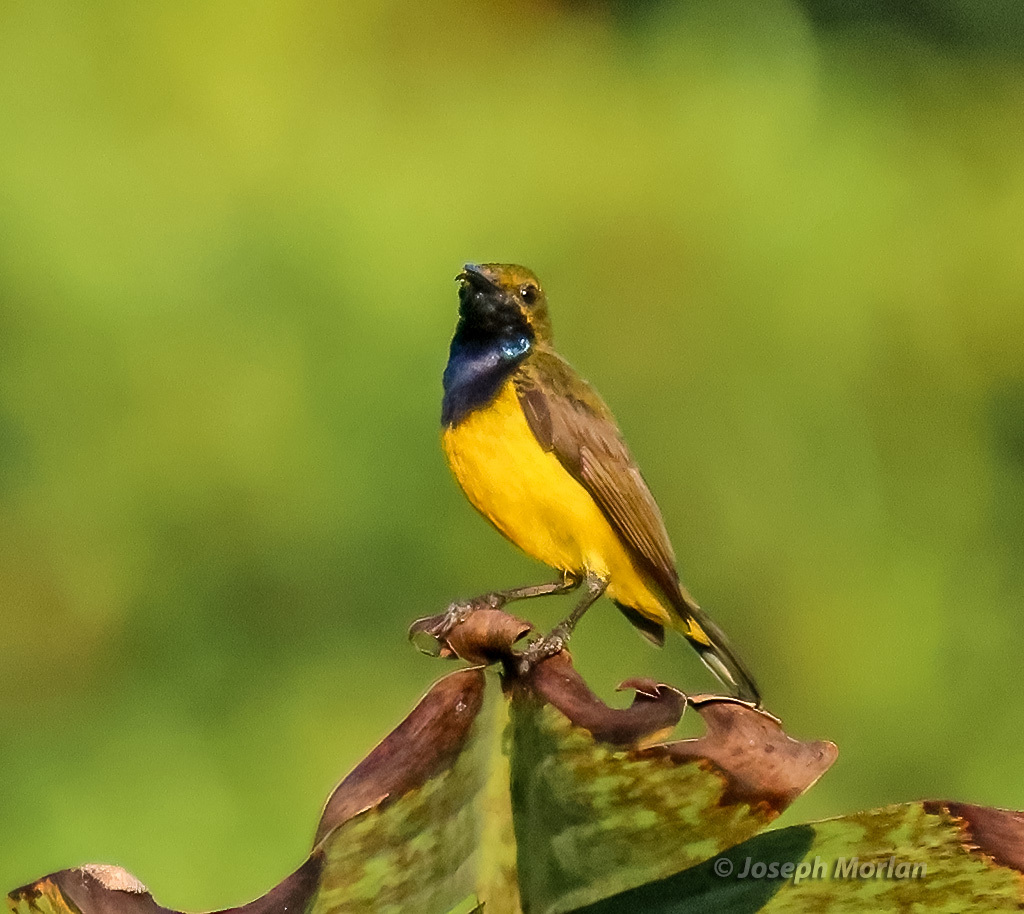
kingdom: Animalia
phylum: Chordata
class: Aves
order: Passeriformes
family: Nectariniidae
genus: Cinnyris
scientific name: Cinnyris
